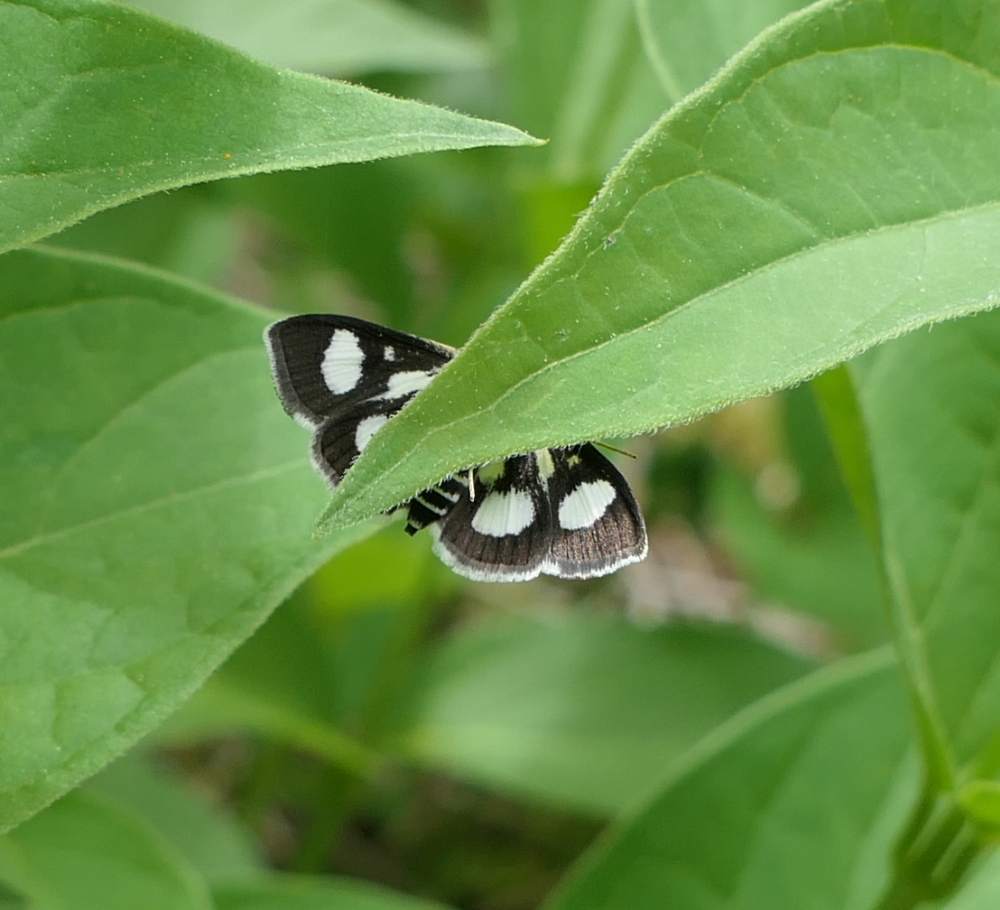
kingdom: Animalia
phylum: Arthropoda
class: Insecta
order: Lepidoptera
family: Crambidae
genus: Anania
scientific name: Anania funebris
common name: White-spotted sable moth
